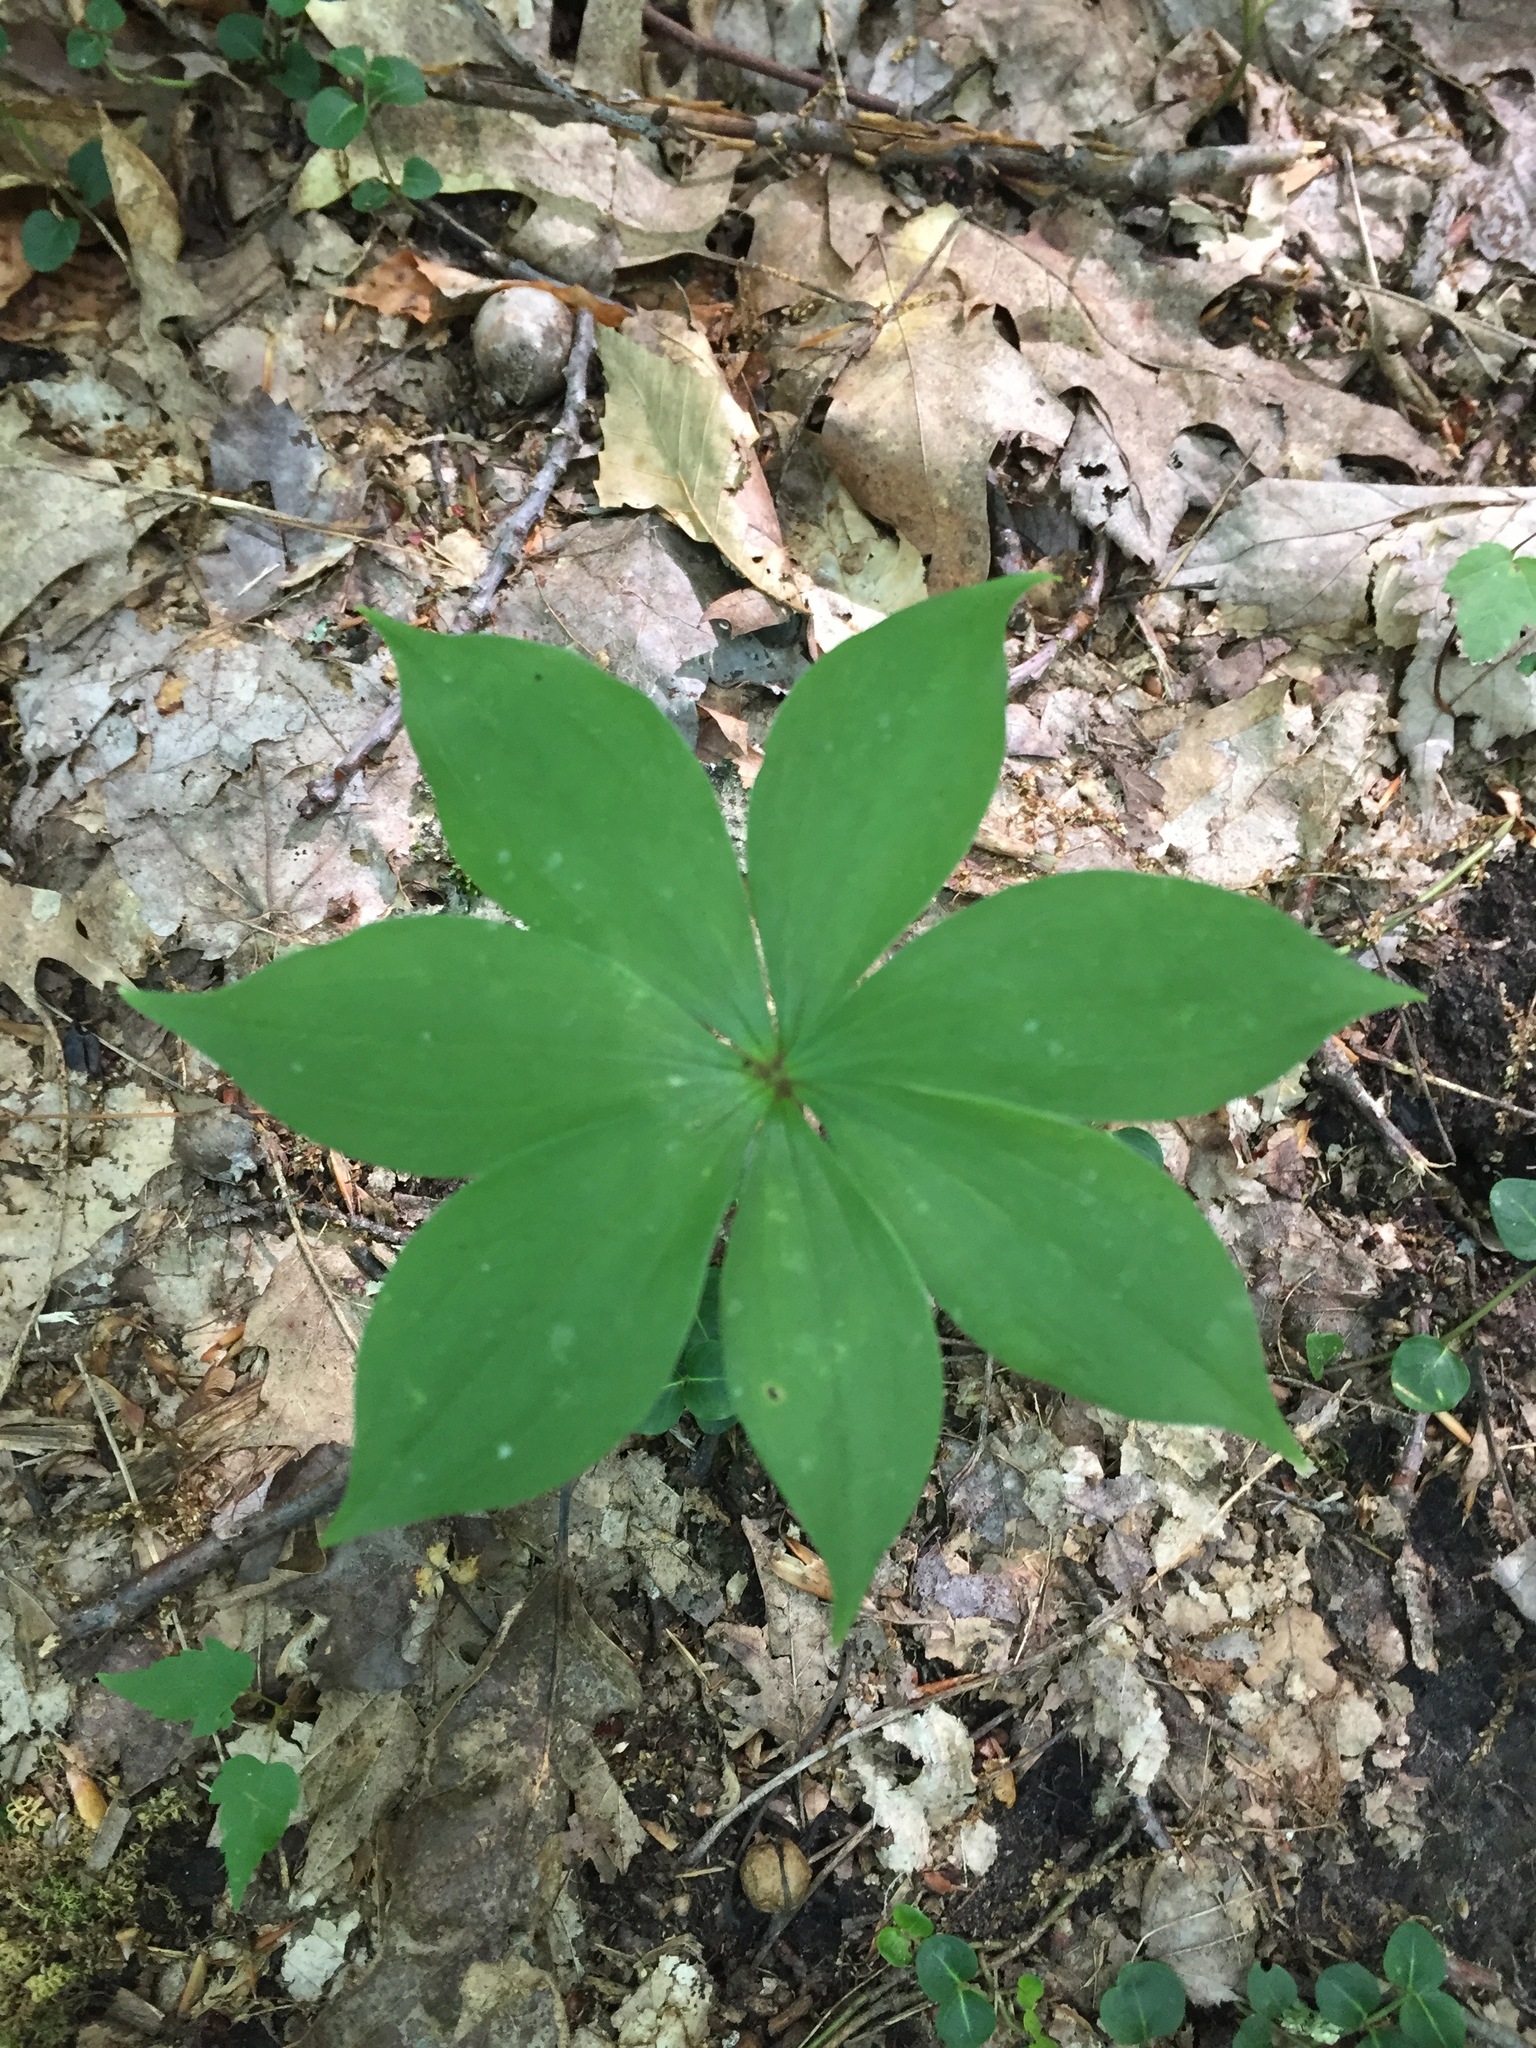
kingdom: Plantae
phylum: Tracheophyta
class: Liliopsida
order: Liliales
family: Liliaceae
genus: Medeola
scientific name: Medeola virginiana
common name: Indian cucumber-root
